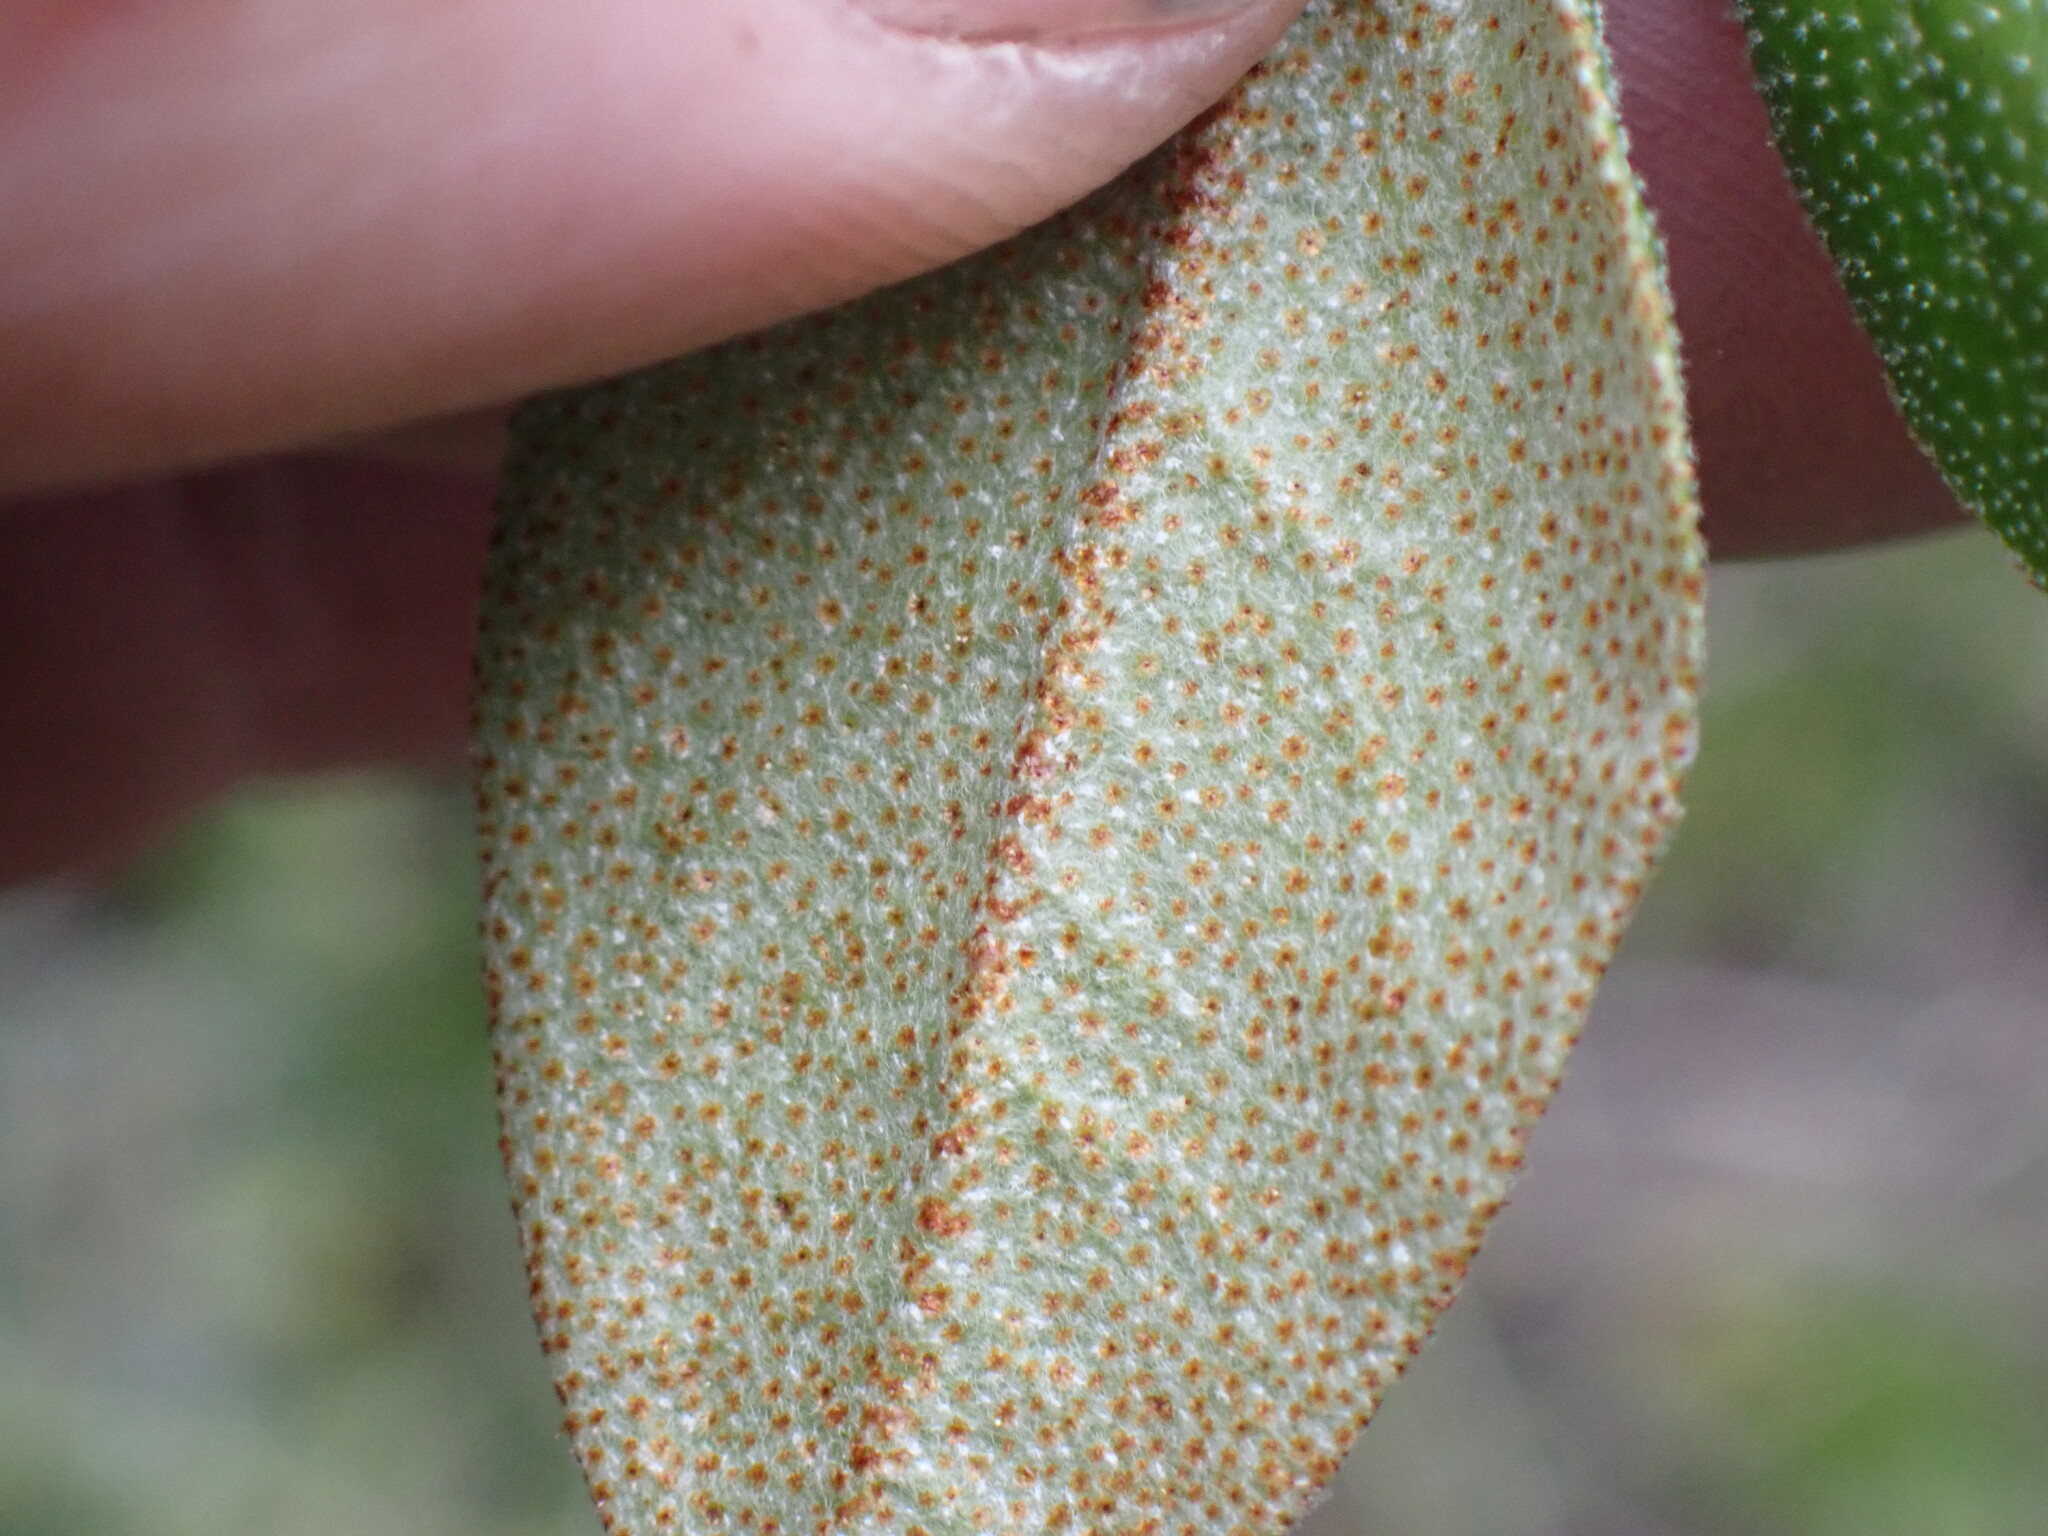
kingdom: Plantae
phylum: Tracheophyta
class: Magnoliopsida
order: Rosales
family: Elaeagnaceae
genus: Shepherdia
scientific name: Shepherdia canadensis
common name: Soapberry
